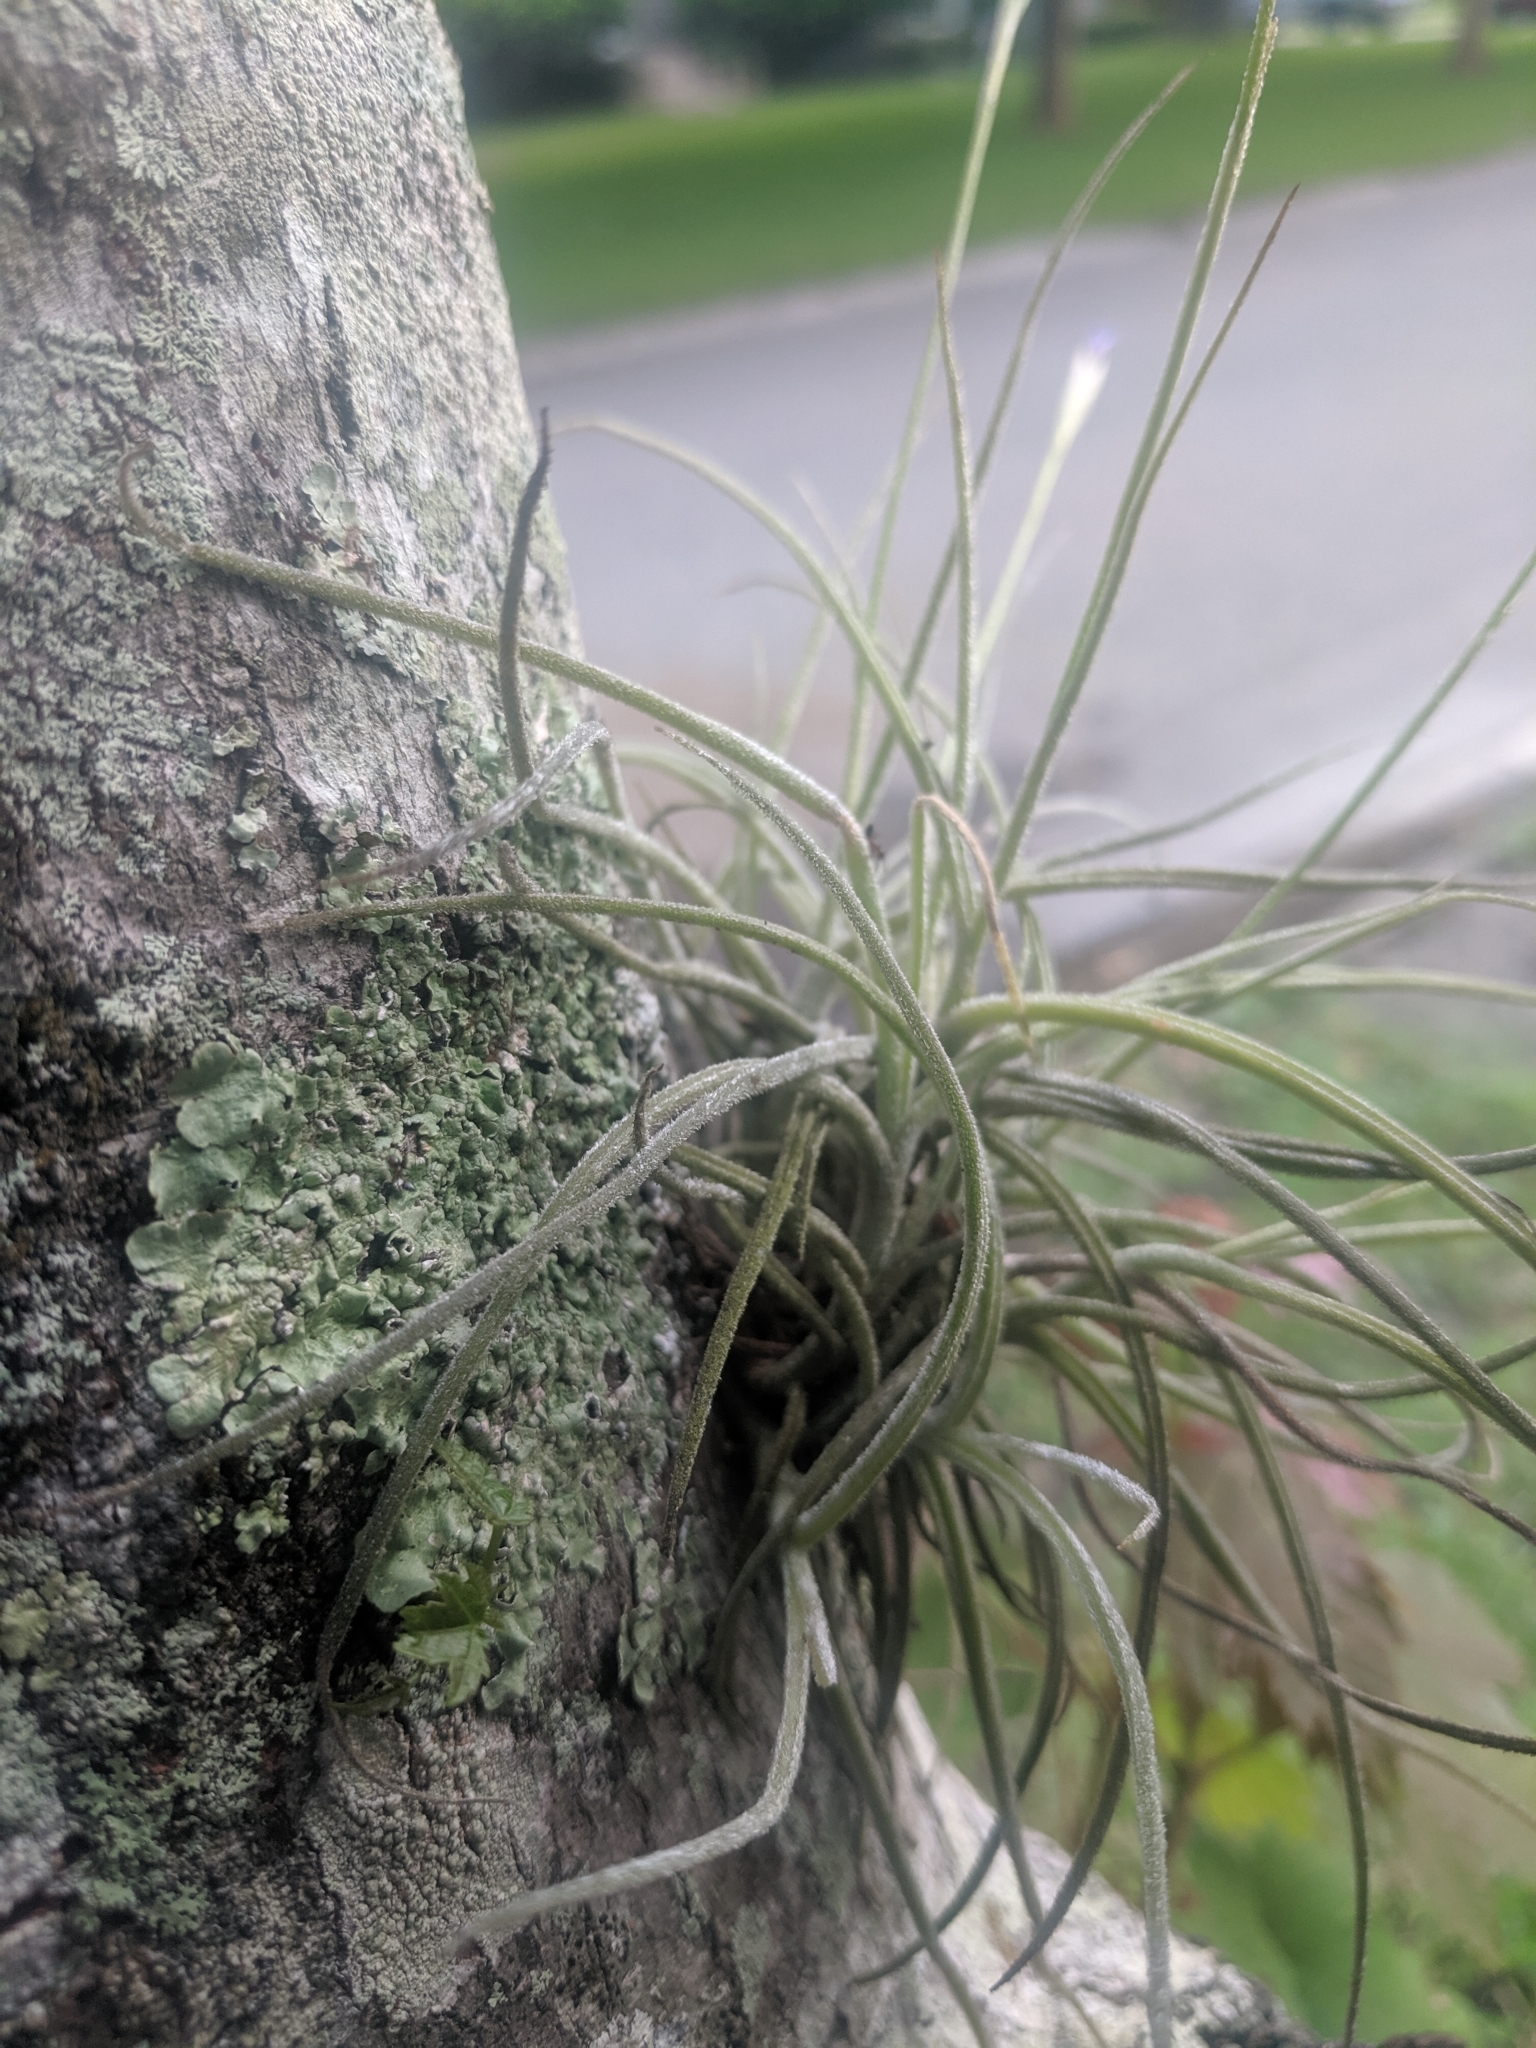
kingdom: Plantae
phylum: Tracheophyta
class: Liliopsida
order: Poales
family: Bromeliaceae
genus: Tillandsia
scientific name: Tillandsia recurvata
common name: Small ballmoss
